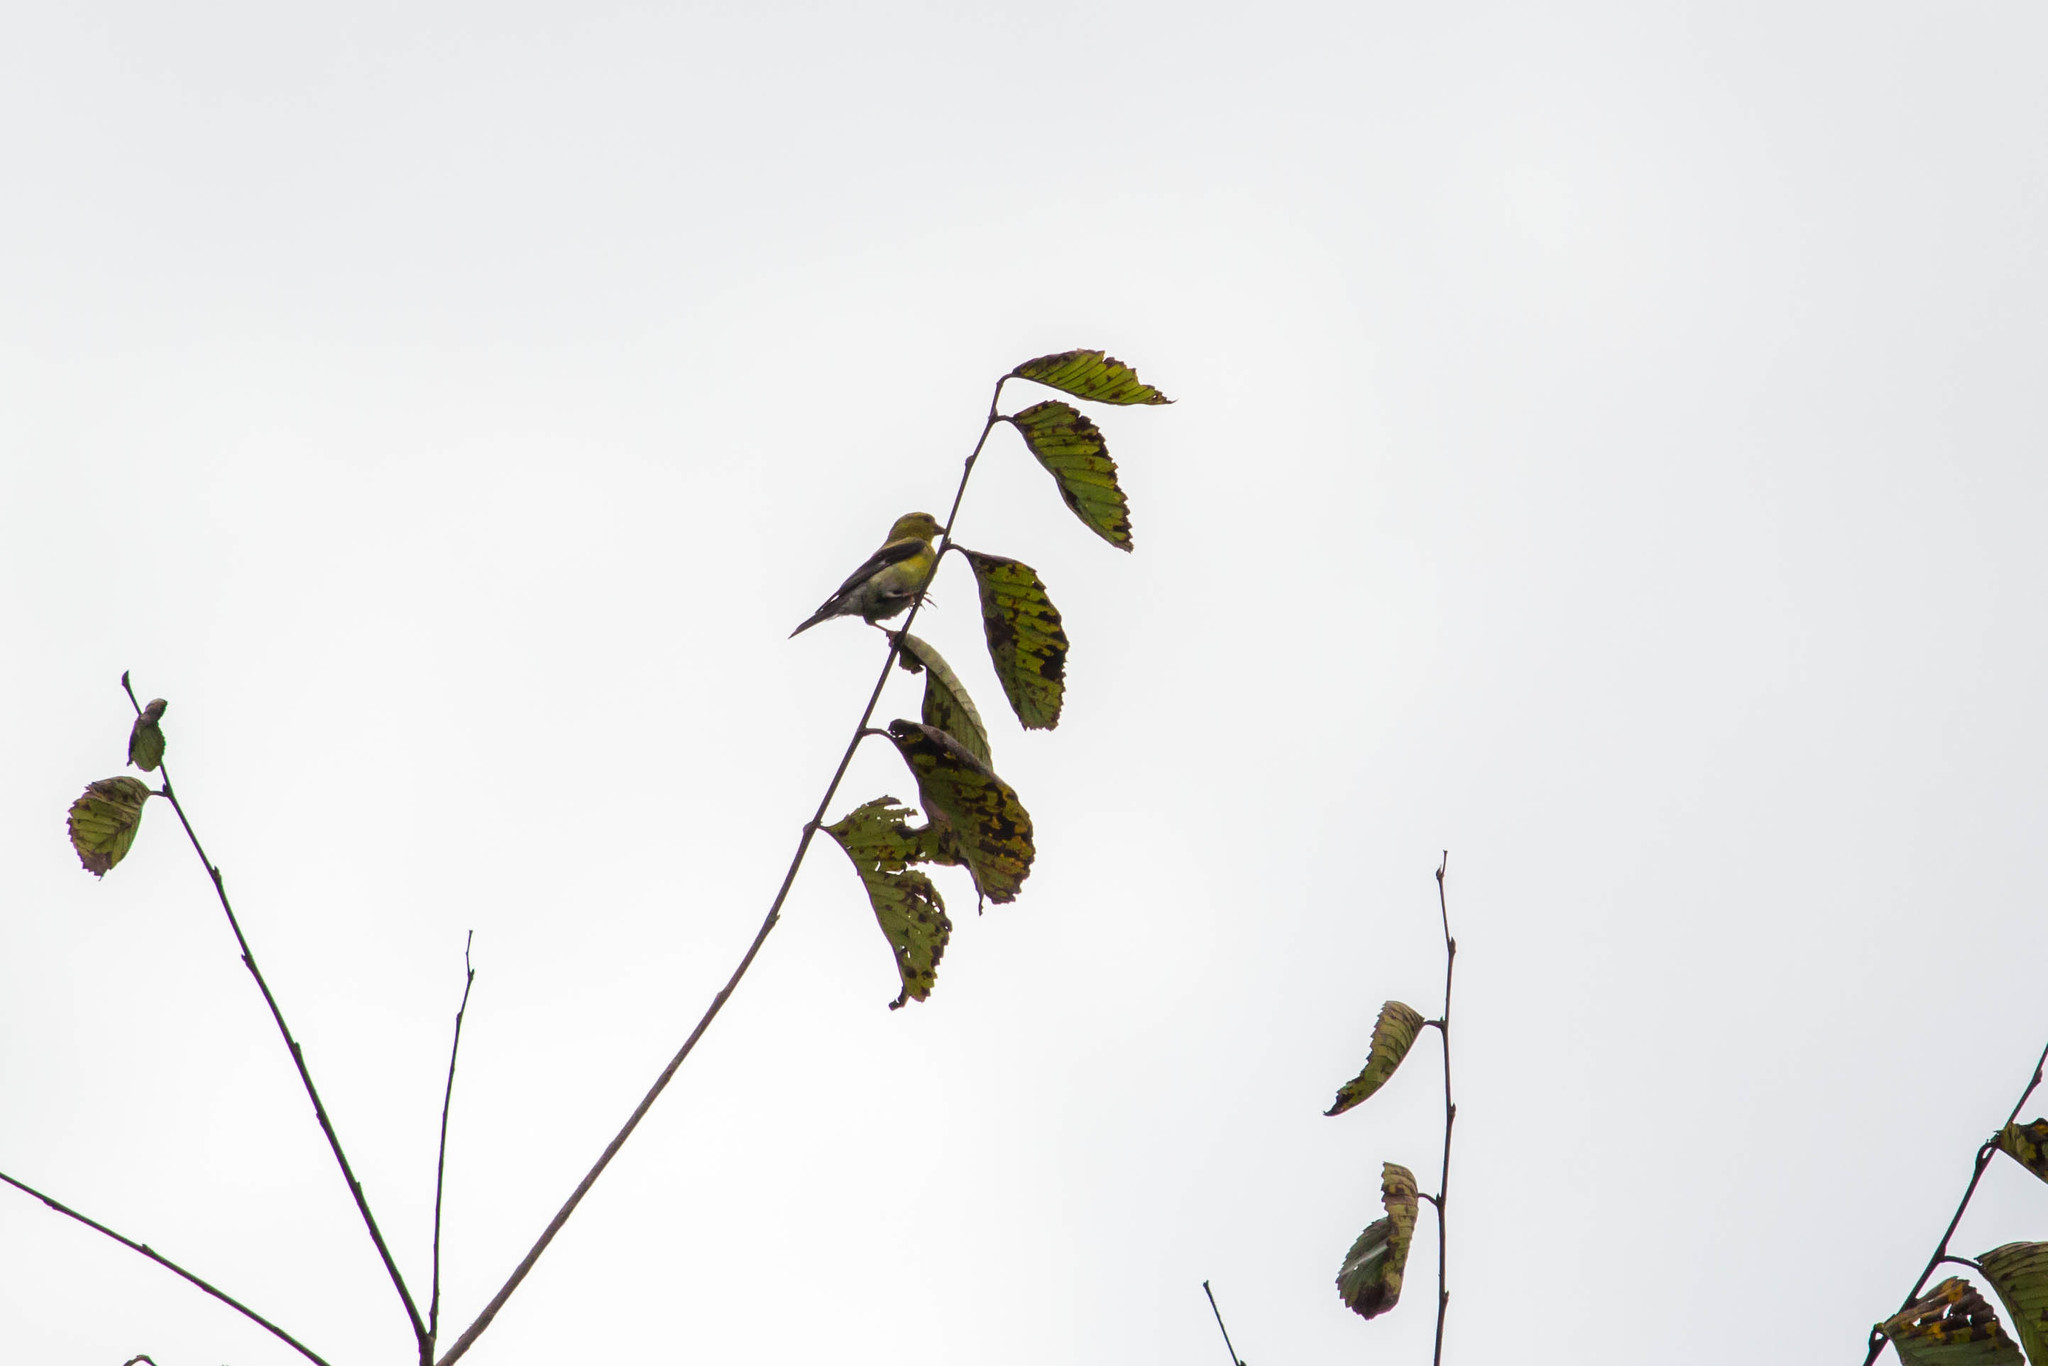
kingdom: Animalia
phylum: Chordata
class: Aves
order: Passeriformes
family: Fringillidae
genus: Spinus
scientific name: Spinus tristis
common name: American goldfinch
